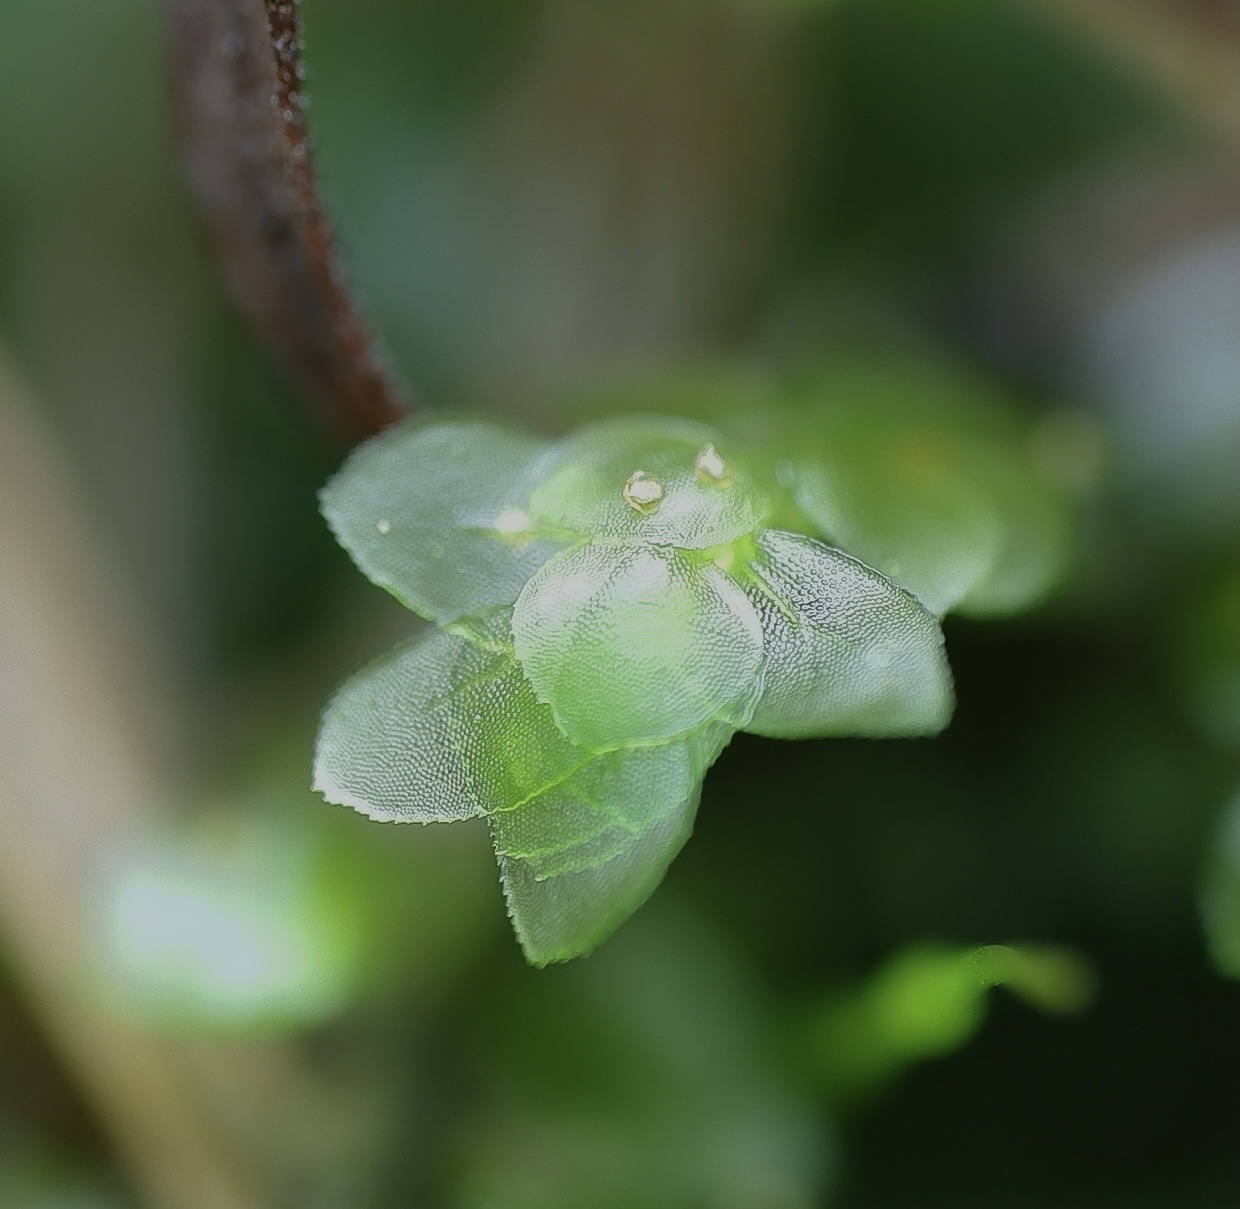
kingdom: Plantae
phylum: Bryophyta
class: Bryopsida
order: Hookeriales
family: Daltoniaceae
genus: Achrophyllum
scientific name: Achrophyllum dentatum
